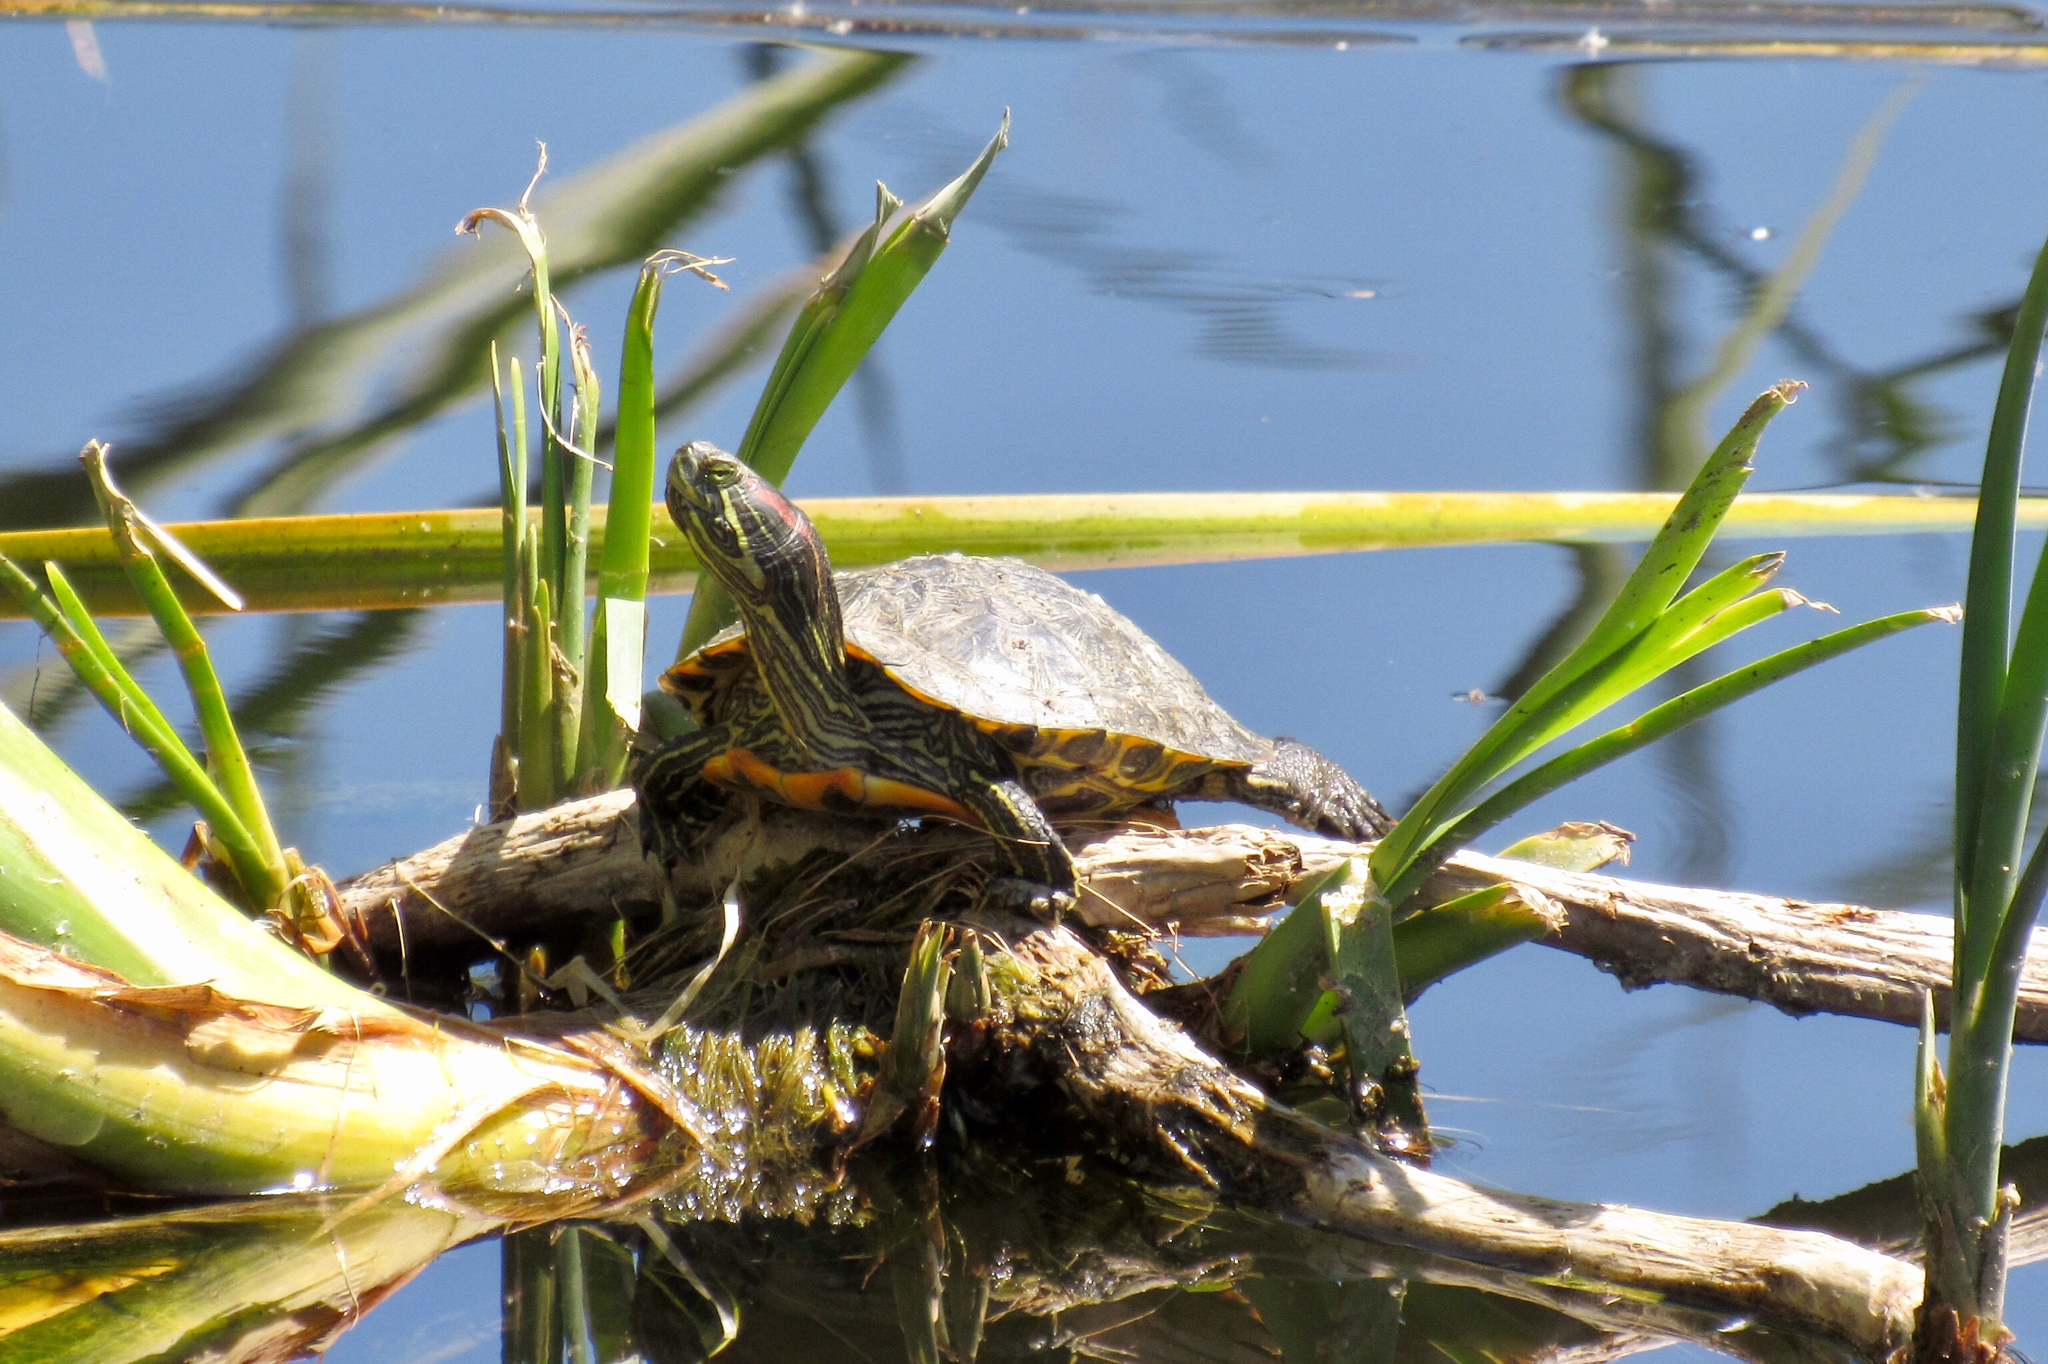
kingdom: Animalia
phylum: Chordata
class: Testudines
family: Emydidae
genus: Trachemys
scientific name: Trachemys scripta
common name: Slider
